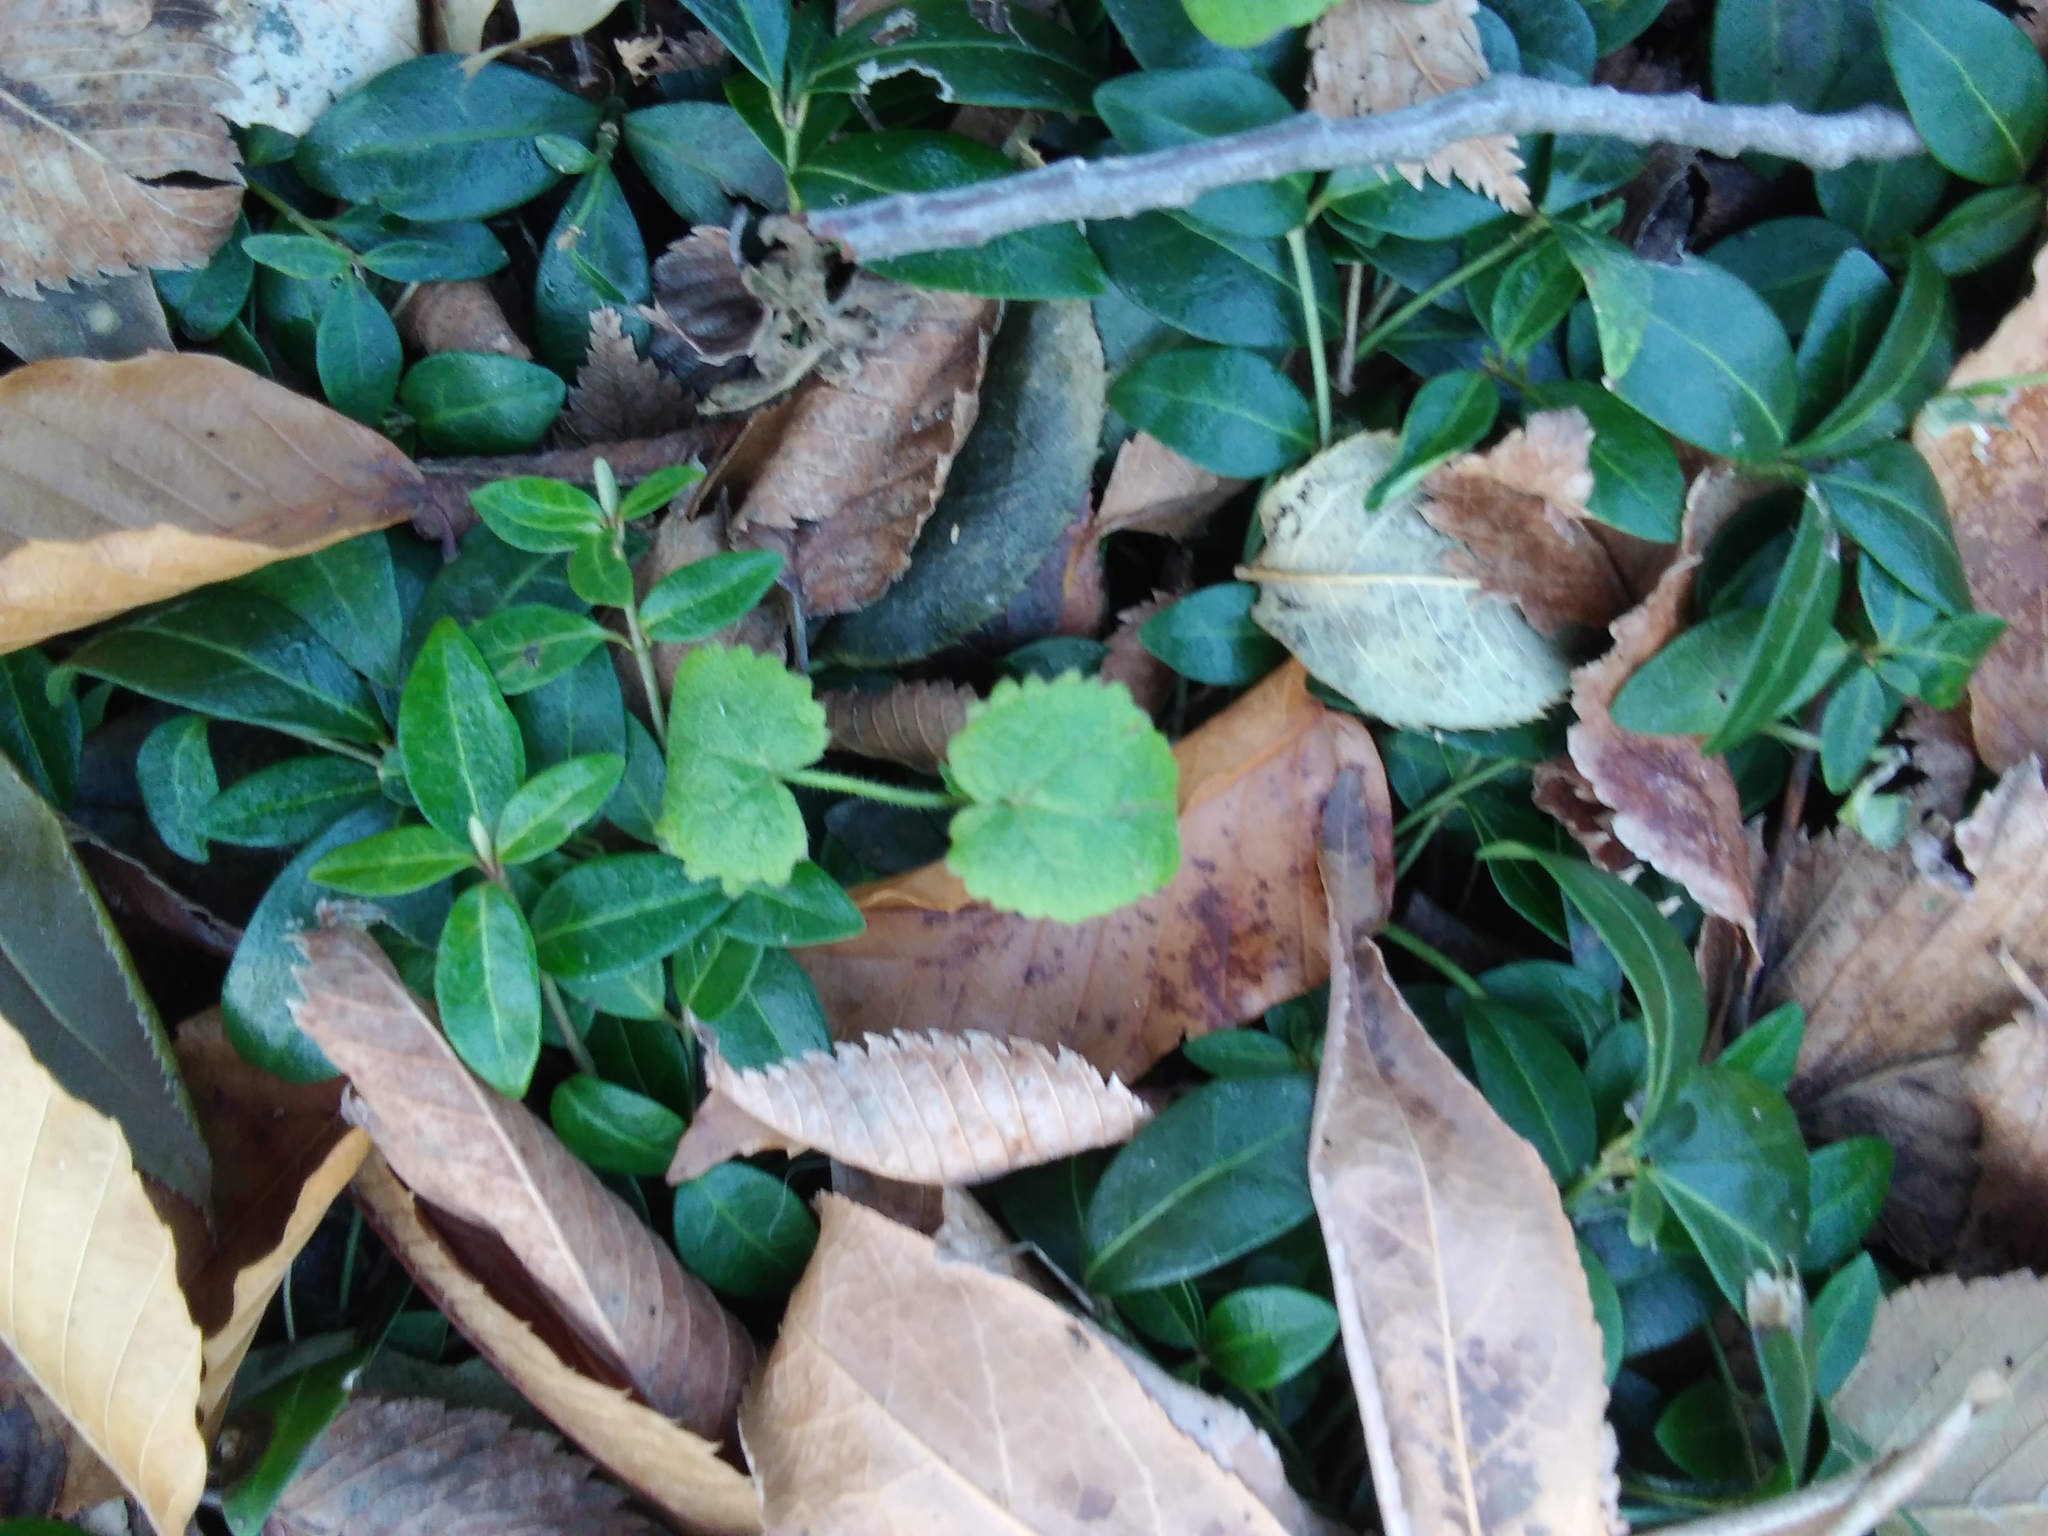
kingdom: Plantae
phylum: Tracheophyta
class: Magnoliopsida
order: Brassicales
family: Brassicaceae
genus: Lunaria
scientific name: Lunaria annua
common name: Honesty
